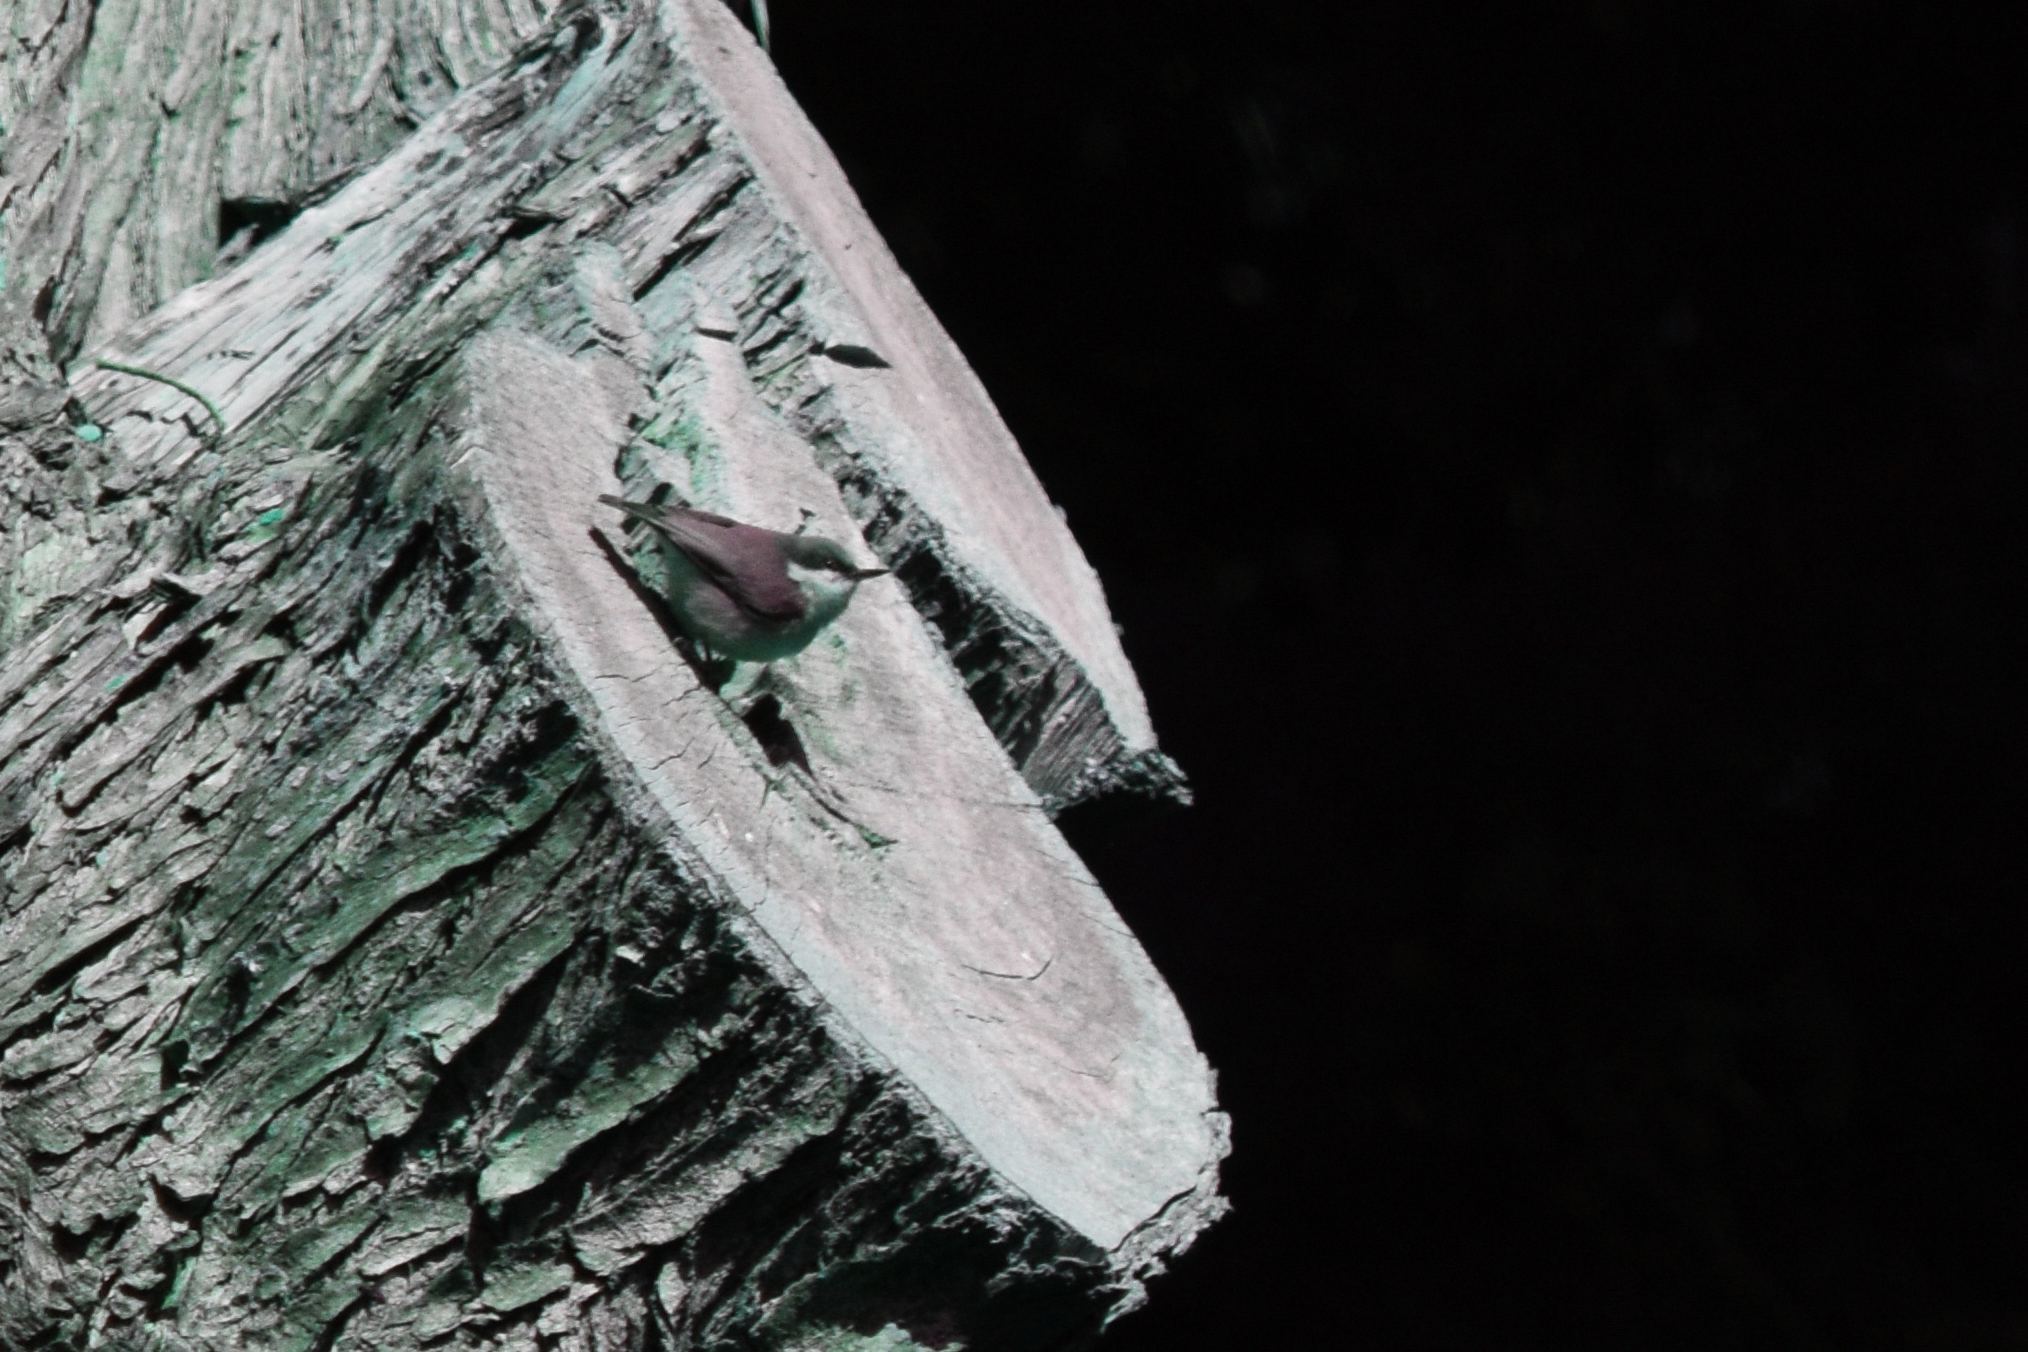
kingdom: Animalia
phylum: Chordata
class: Aves
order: Passeriformes
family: Sittidae
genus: Sitta
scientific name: Sitta pygmaea
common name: Pygmy nuthatch
